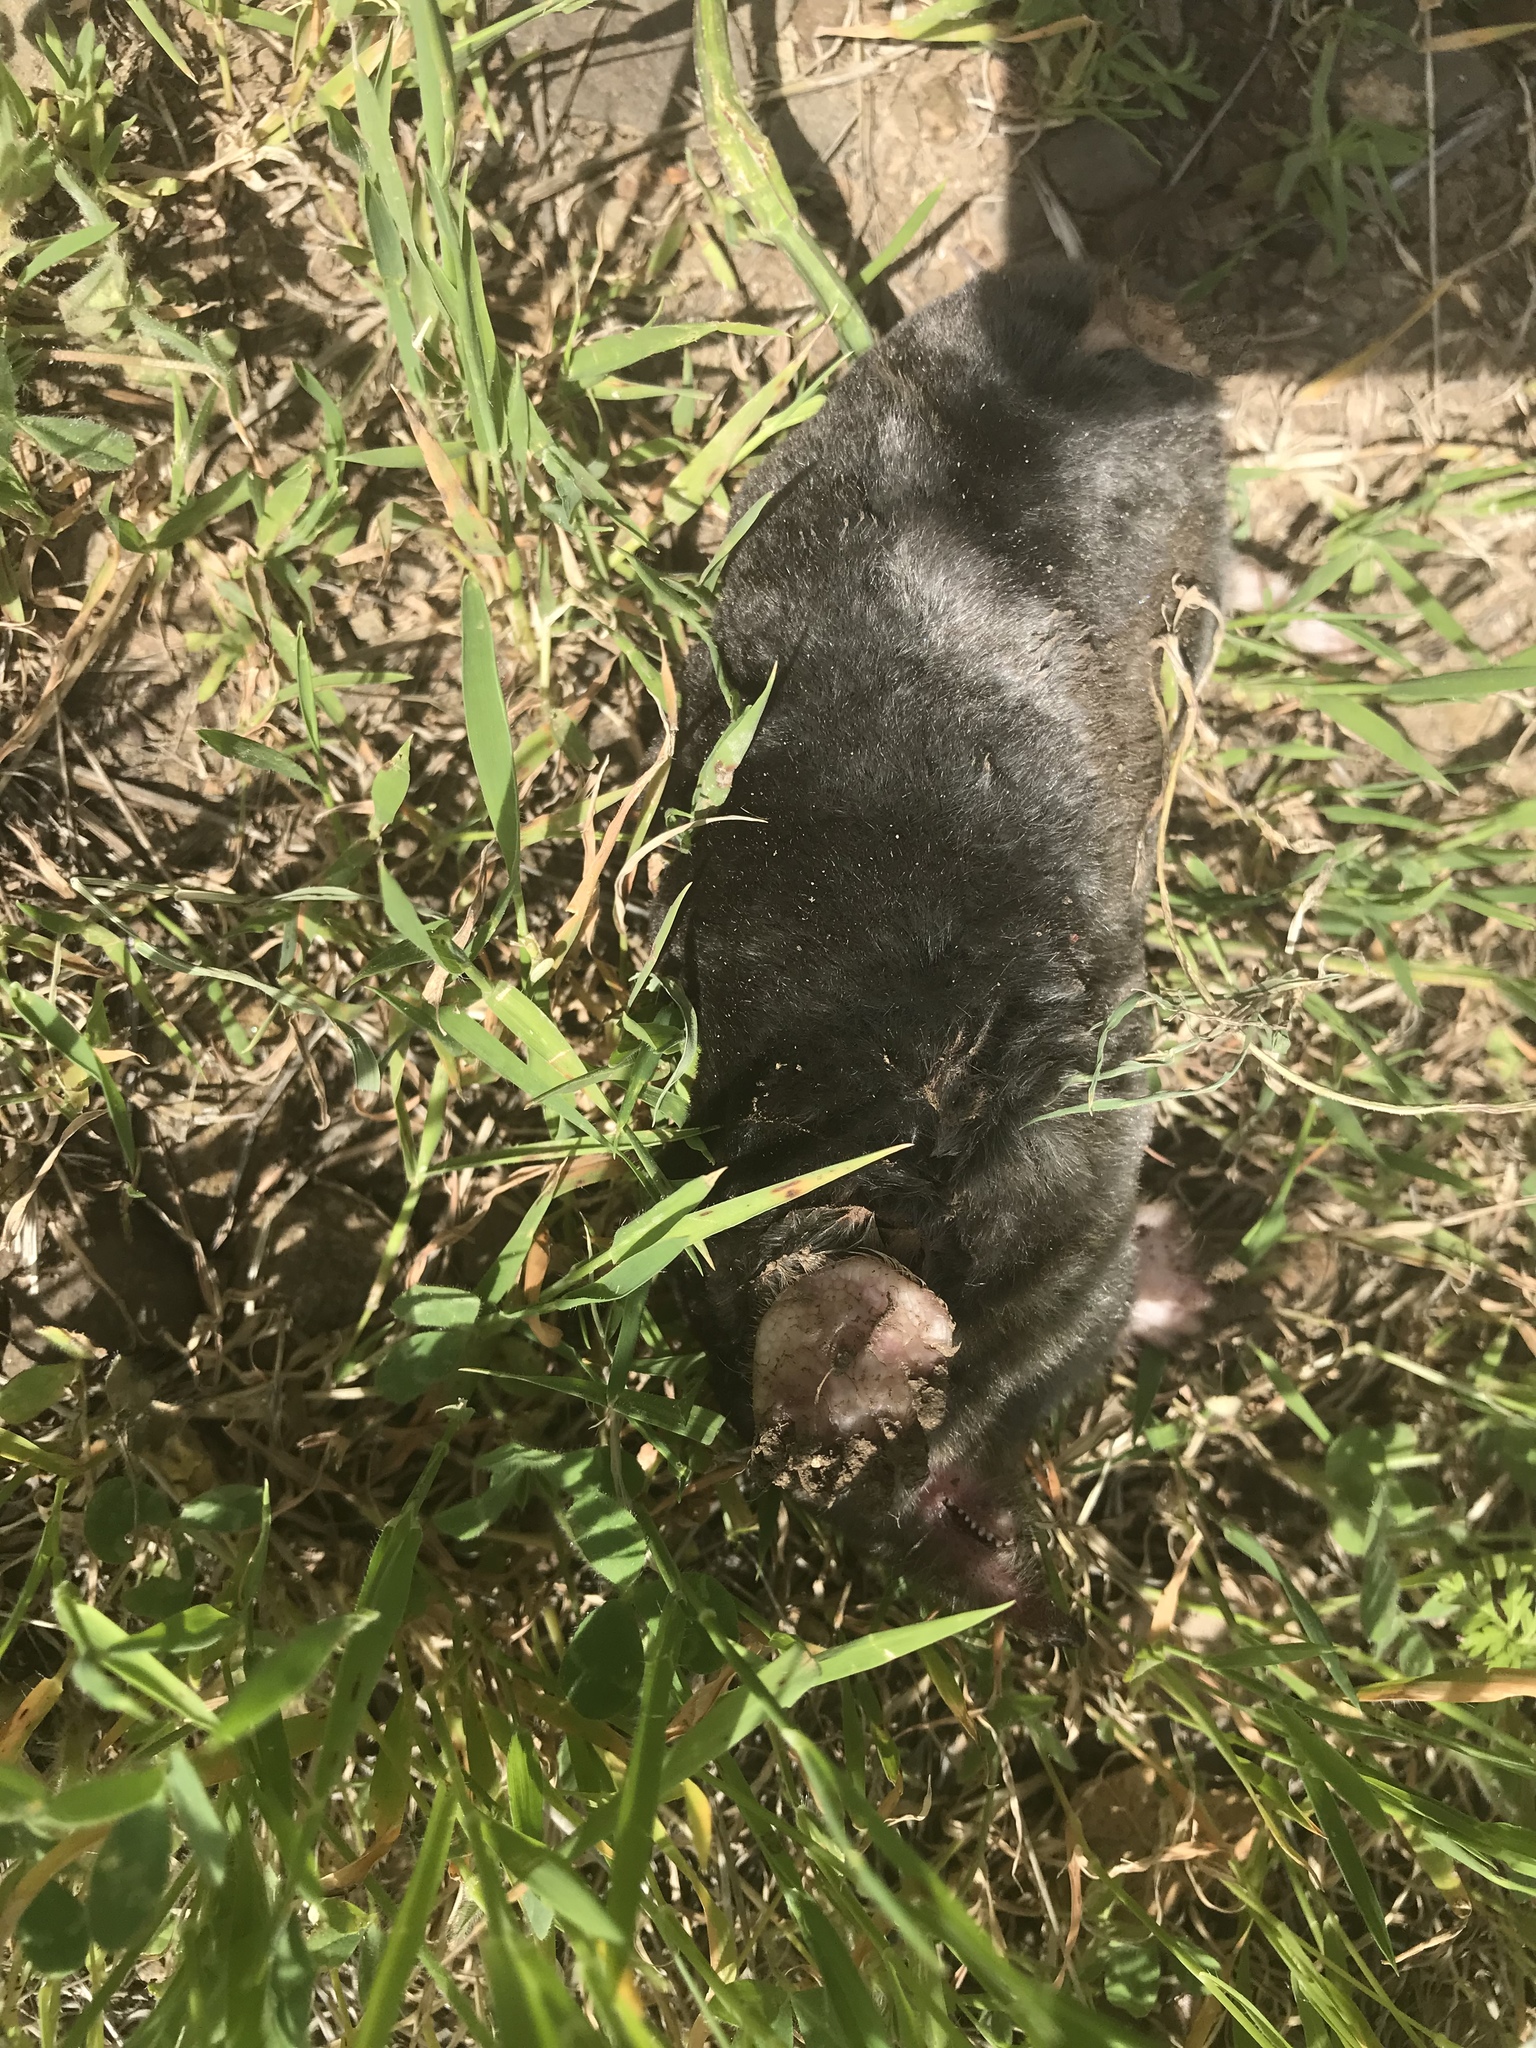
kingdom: Animalia
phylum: Chordata
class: Mammalia
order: Soricomorpha
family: Talpidae
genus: Scapanus
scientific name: Scapanus latimanus
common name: Broad-footed mole
